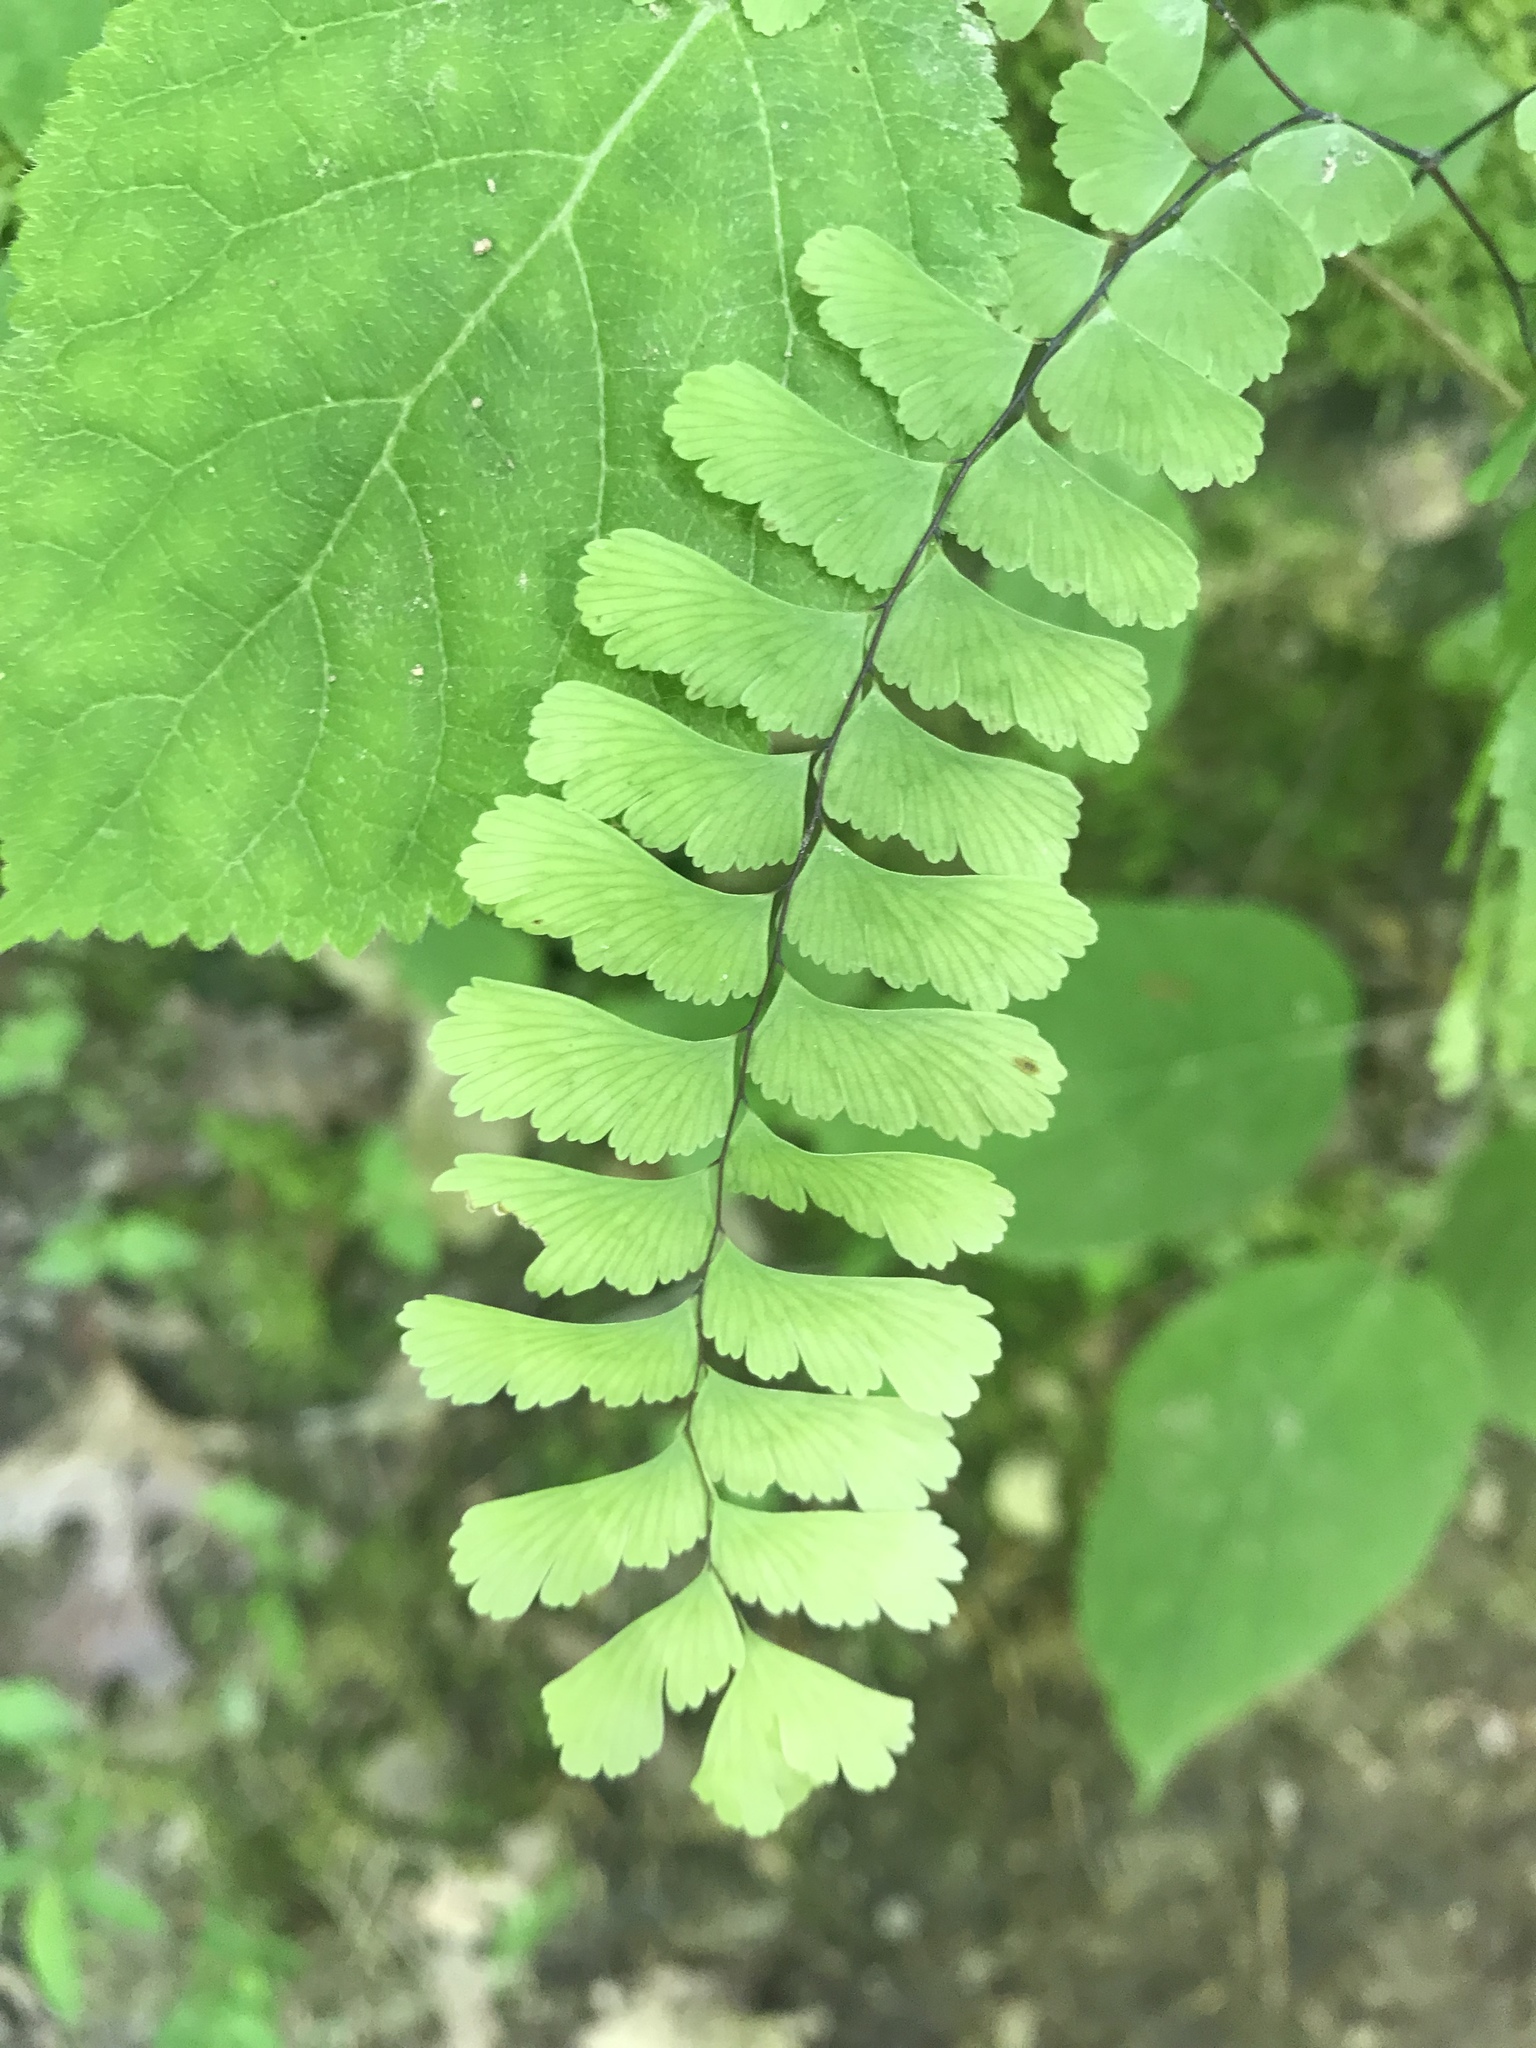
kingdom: Plantae
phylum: Tracheophyta
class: Polypodiopsida
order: Polypodiales
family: Pteridaceae
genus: Adiantum
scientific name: Adiantum pedatum
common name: Five-finger fern
